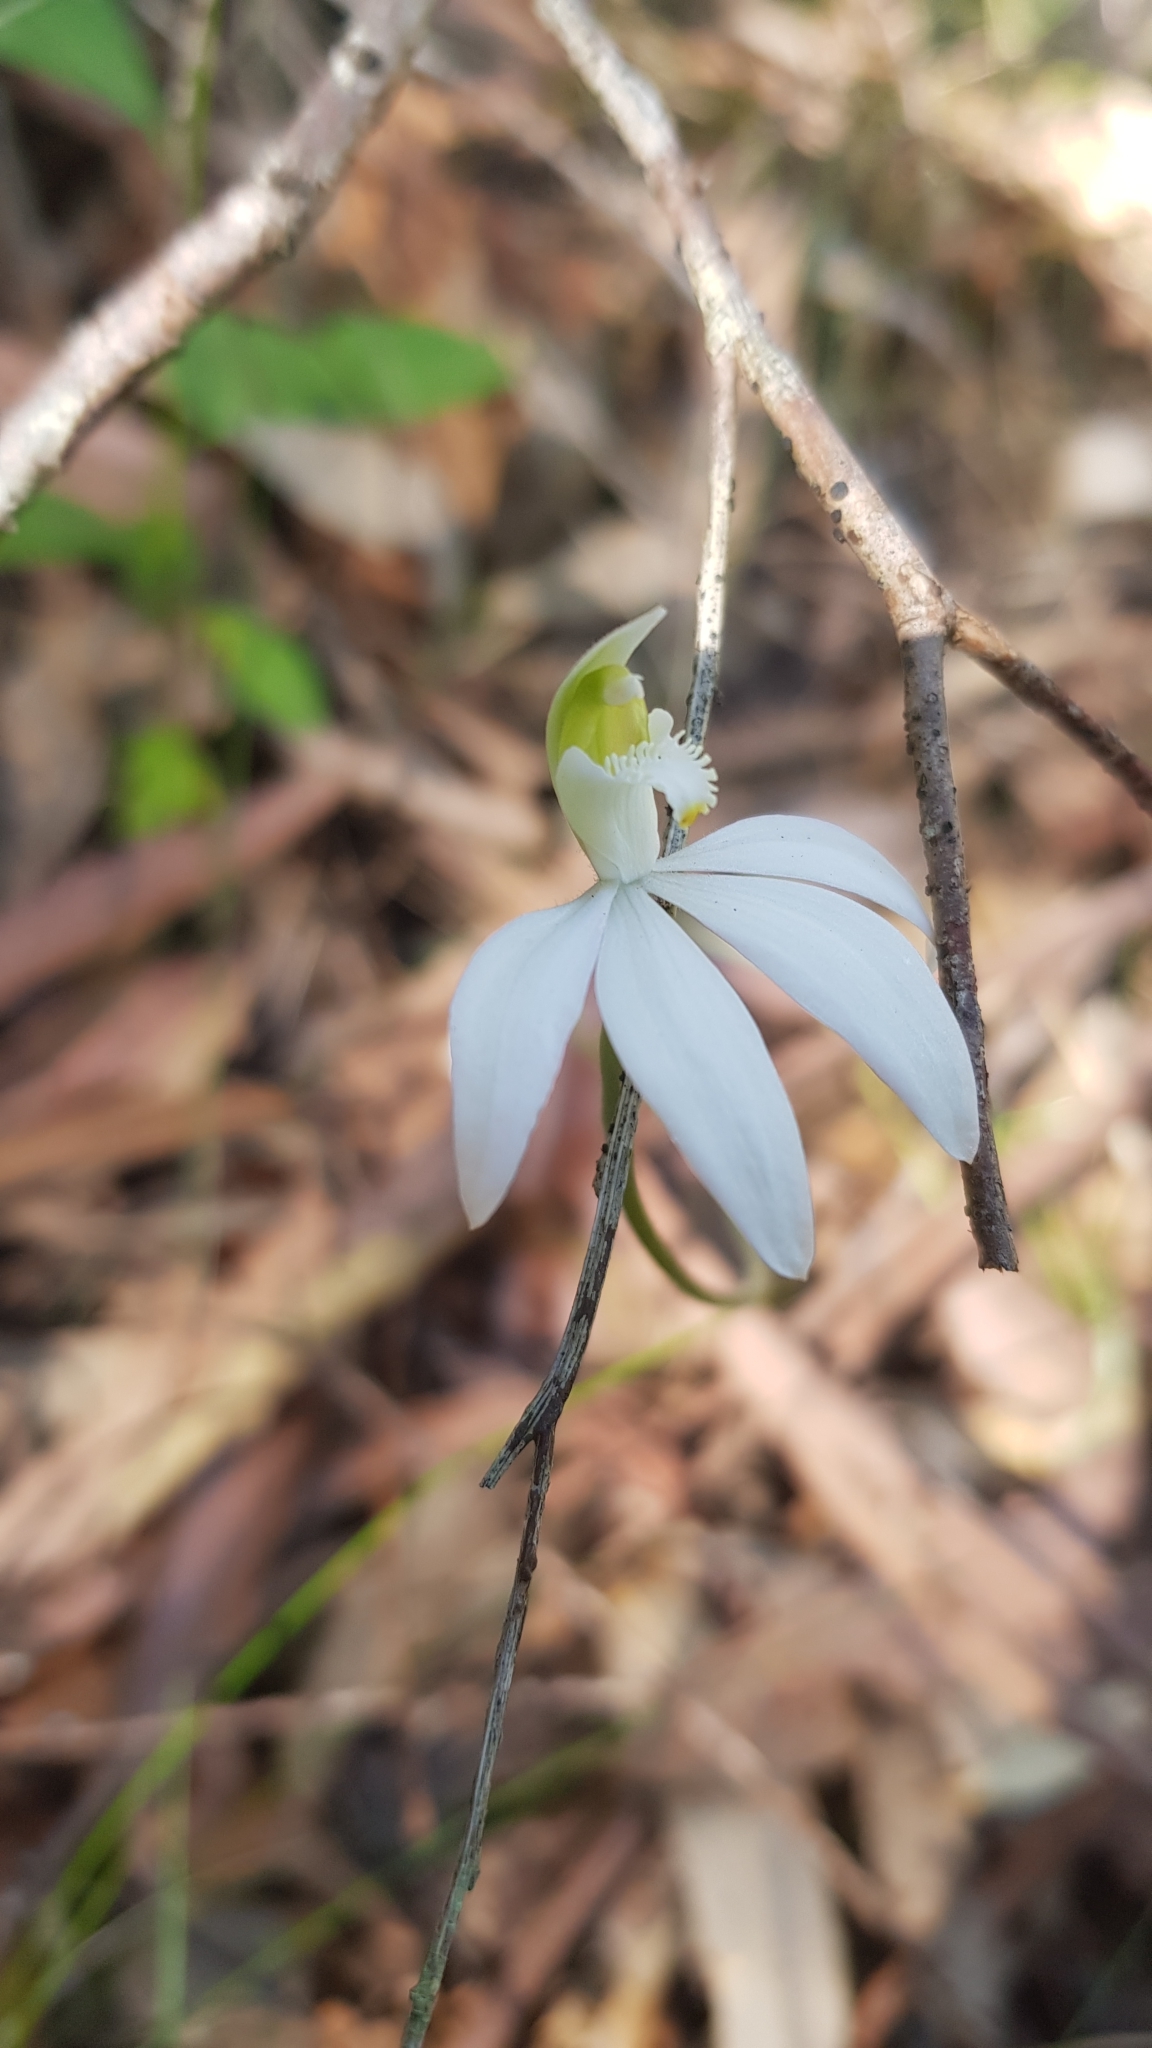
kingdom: Plantae
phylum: Tracheophyta
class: Liliopsida
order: Asparagales
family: Orchidaceae
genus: Caladenia
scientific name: Caladenia catenata
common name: White caladenia
